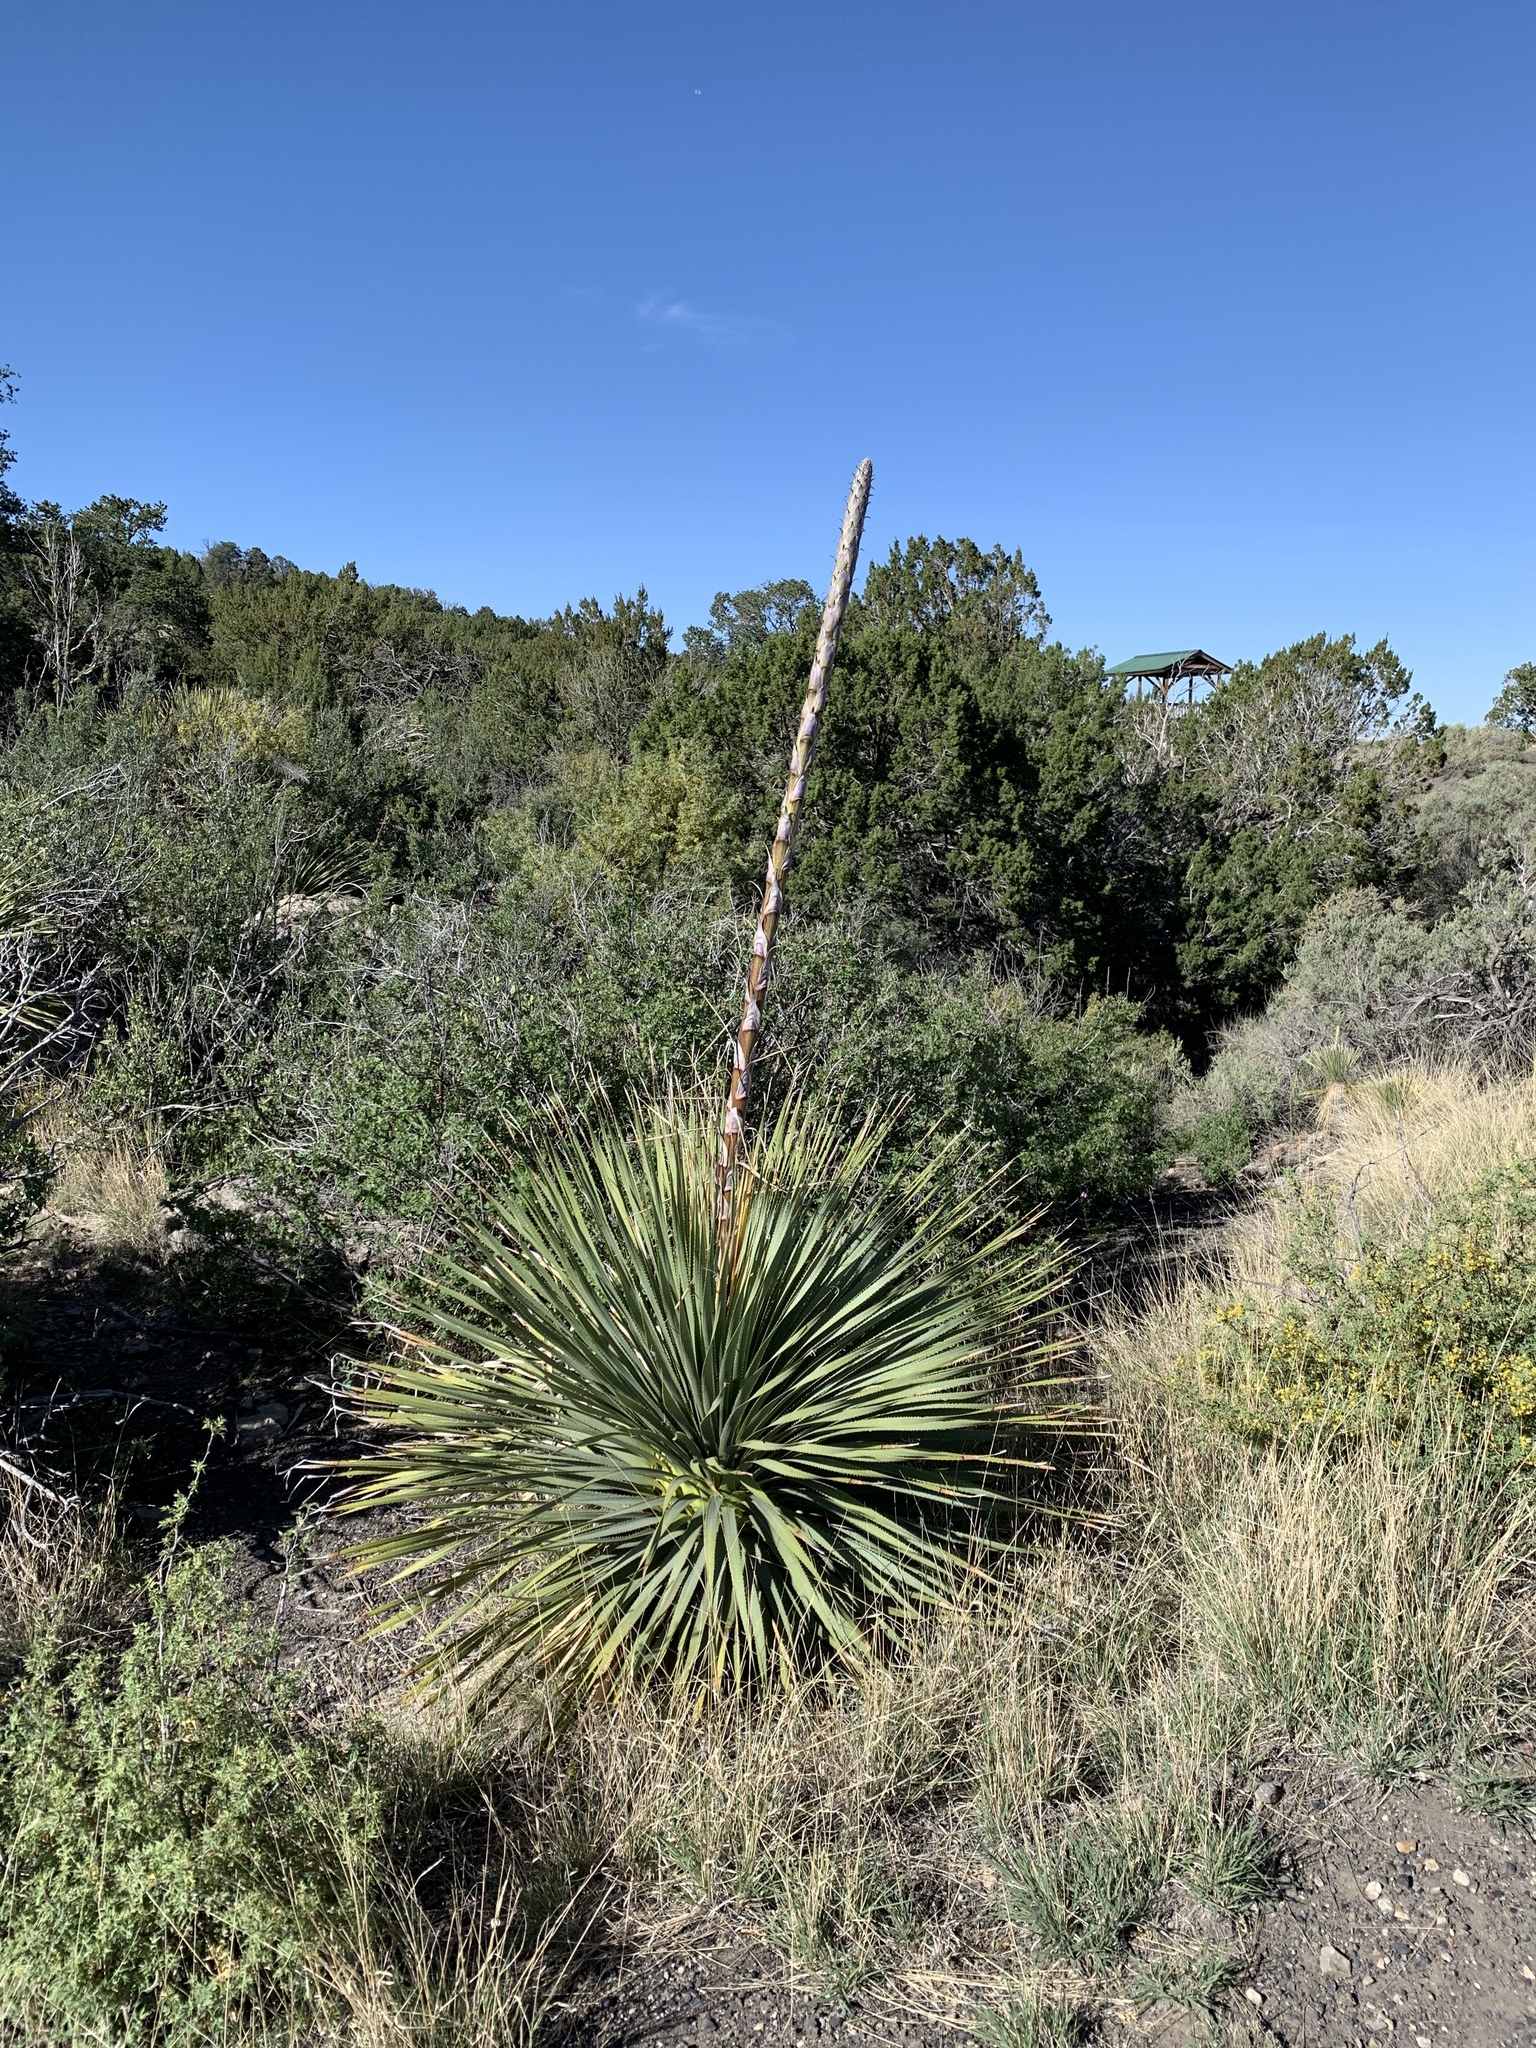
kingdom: Plantae
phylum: Tracheophyta
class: Liliopsida
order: Asparagales
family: Asparagaceae
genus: Dasylirion
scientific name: Dasylirion wheeleri
